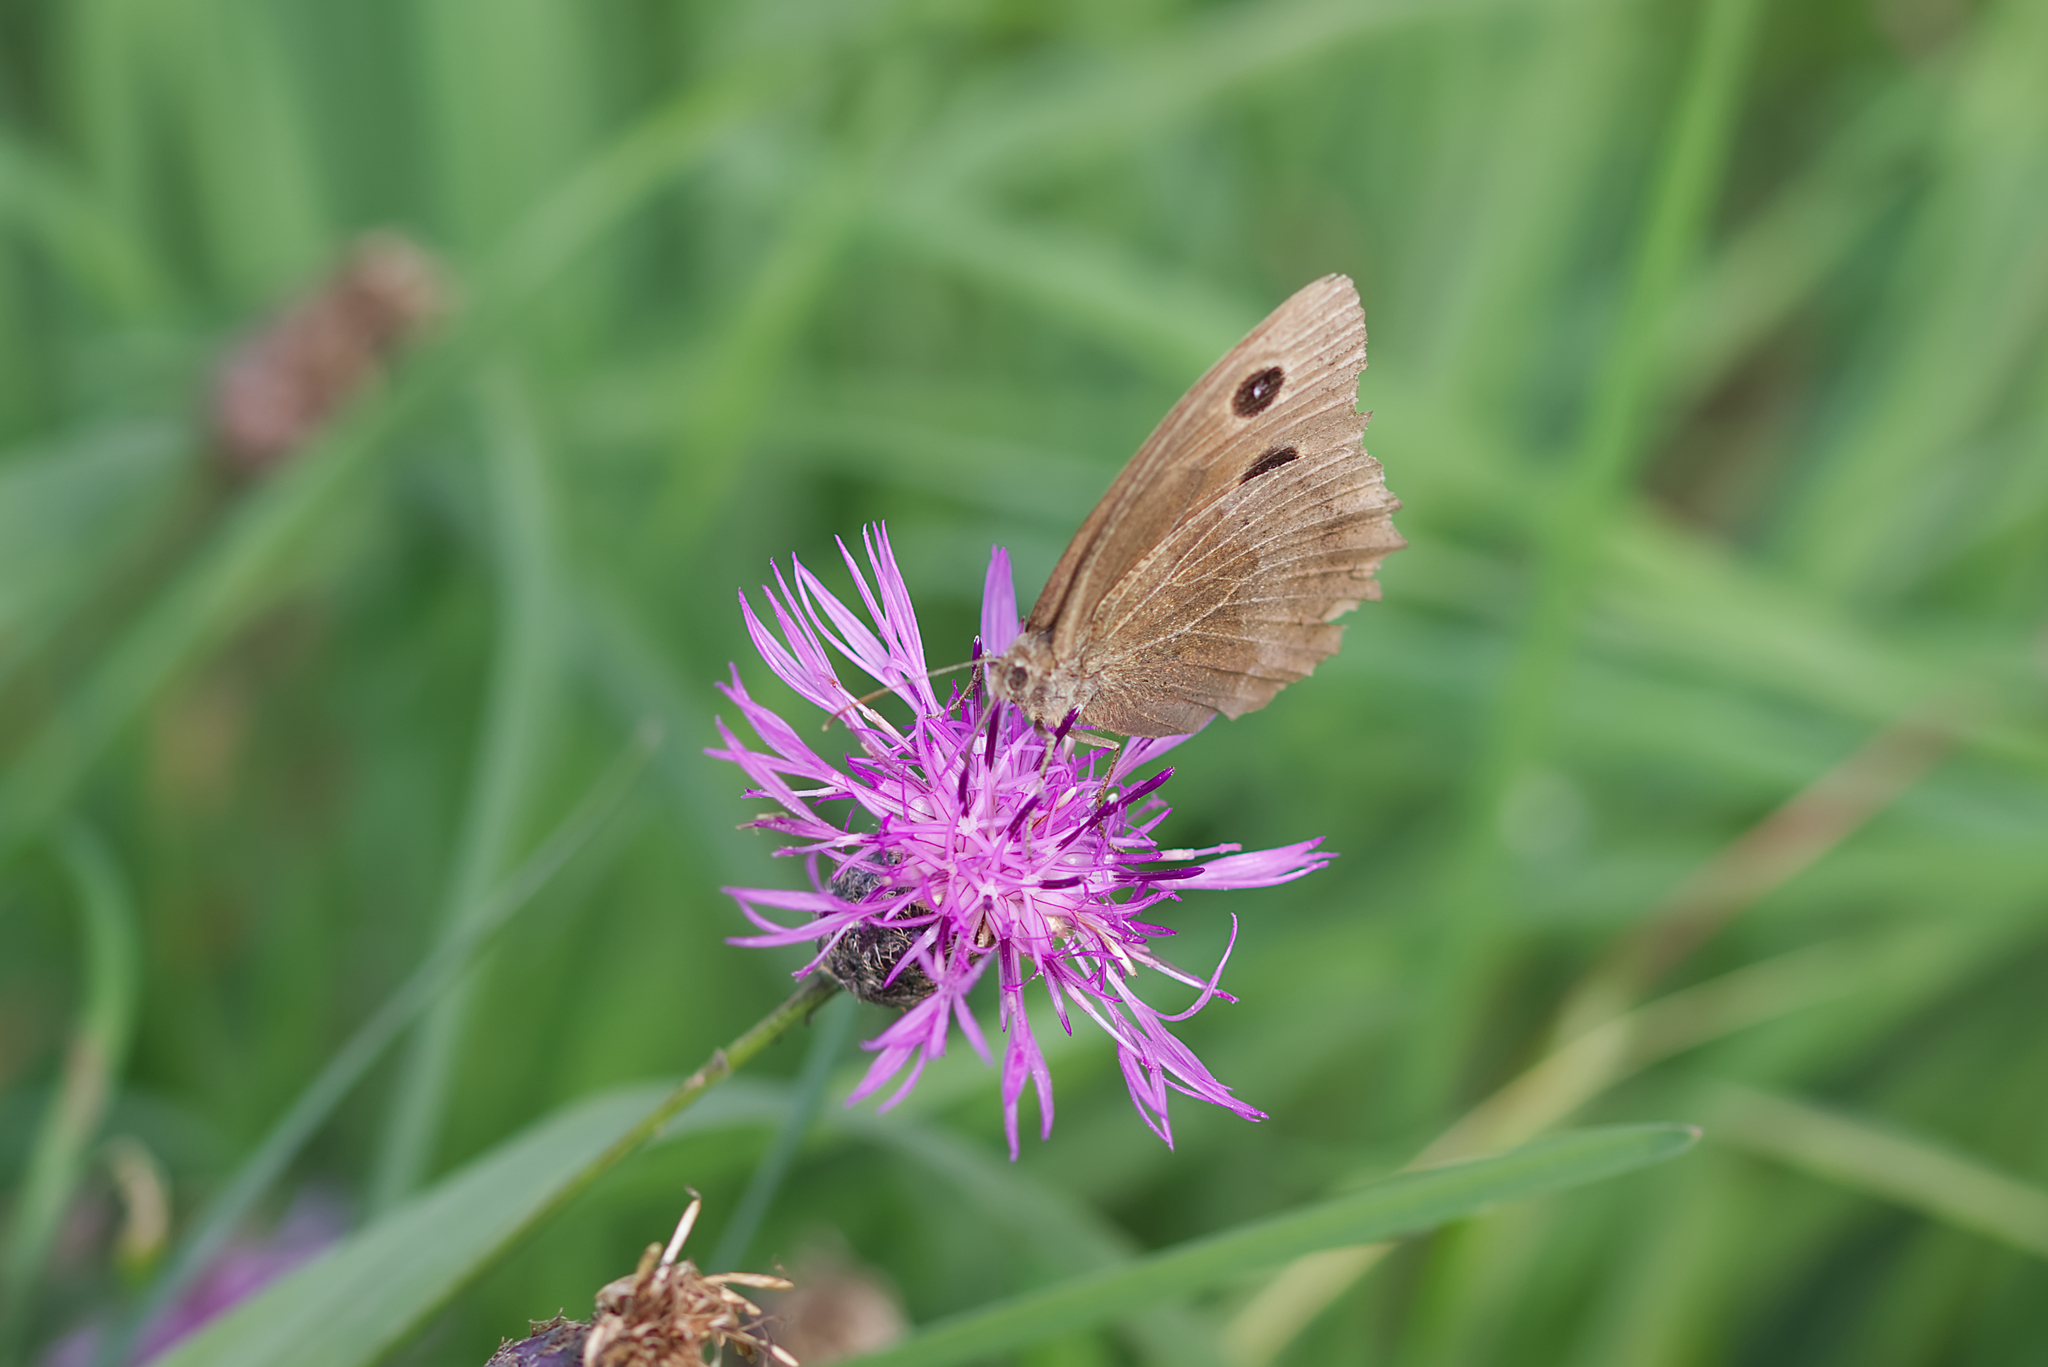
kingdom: Animalia
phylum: Arthropoda
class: Insecta
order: Lepidoptera
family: Nymphalidae
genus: Minois
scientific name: Minois dryas
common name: Dryad
